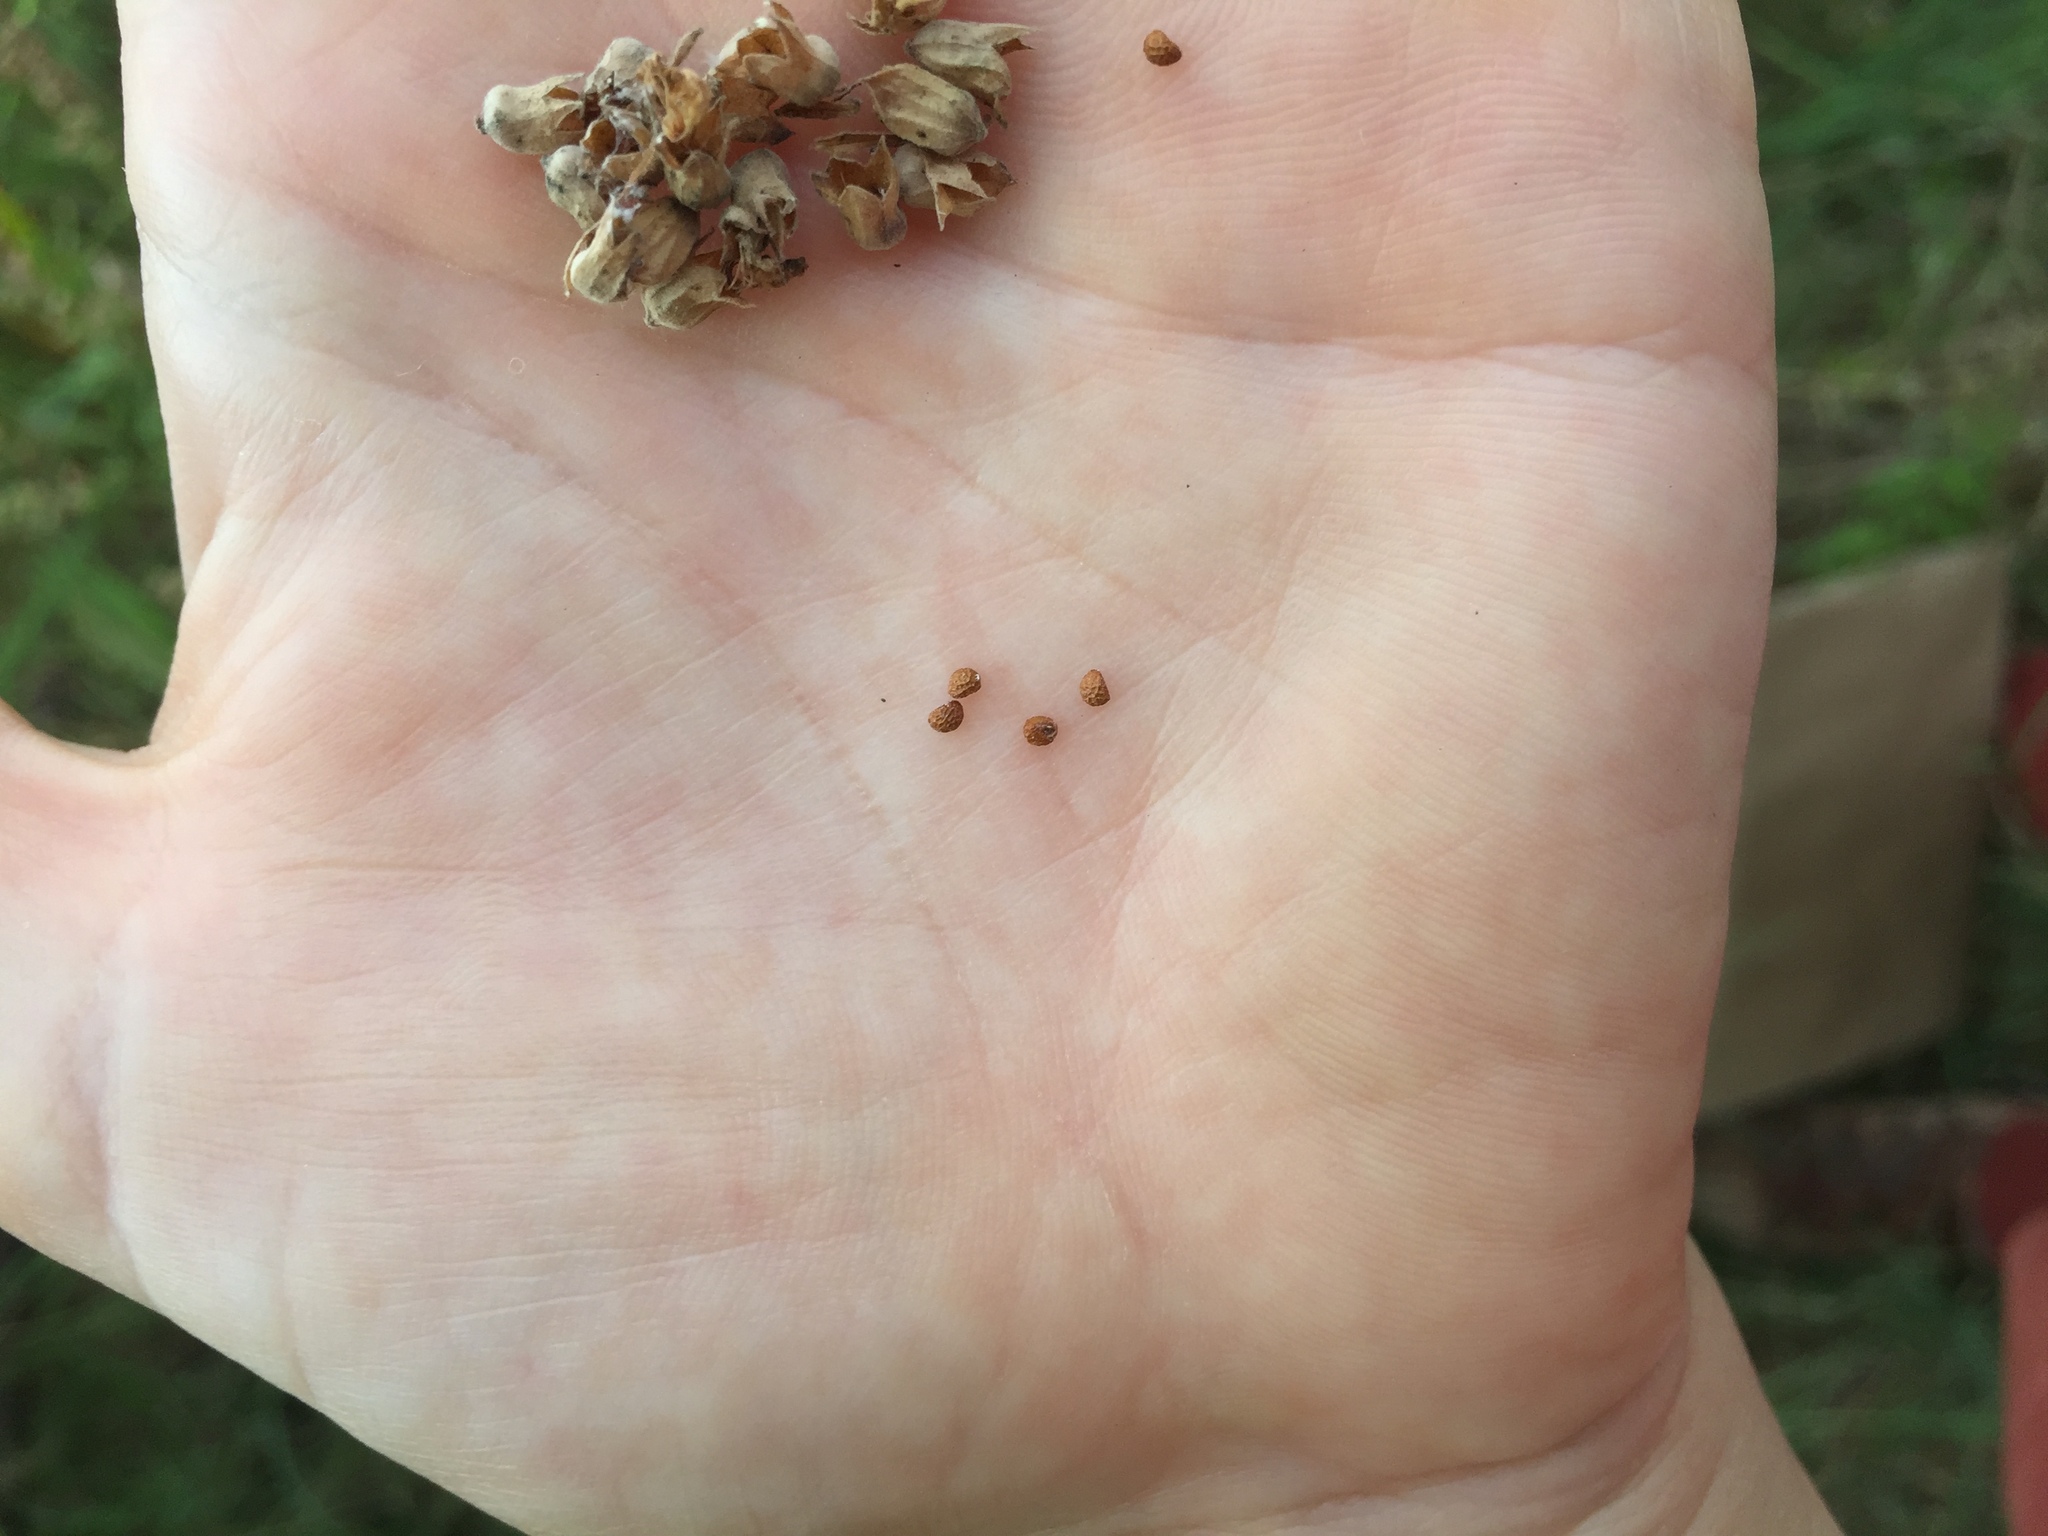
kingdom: Plantae
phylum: Tracheophyta
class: Magnoliopsida
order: Lamiales
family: Lamiaceae
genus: Teucrium
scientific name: Teucrium canadense
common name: American germander
